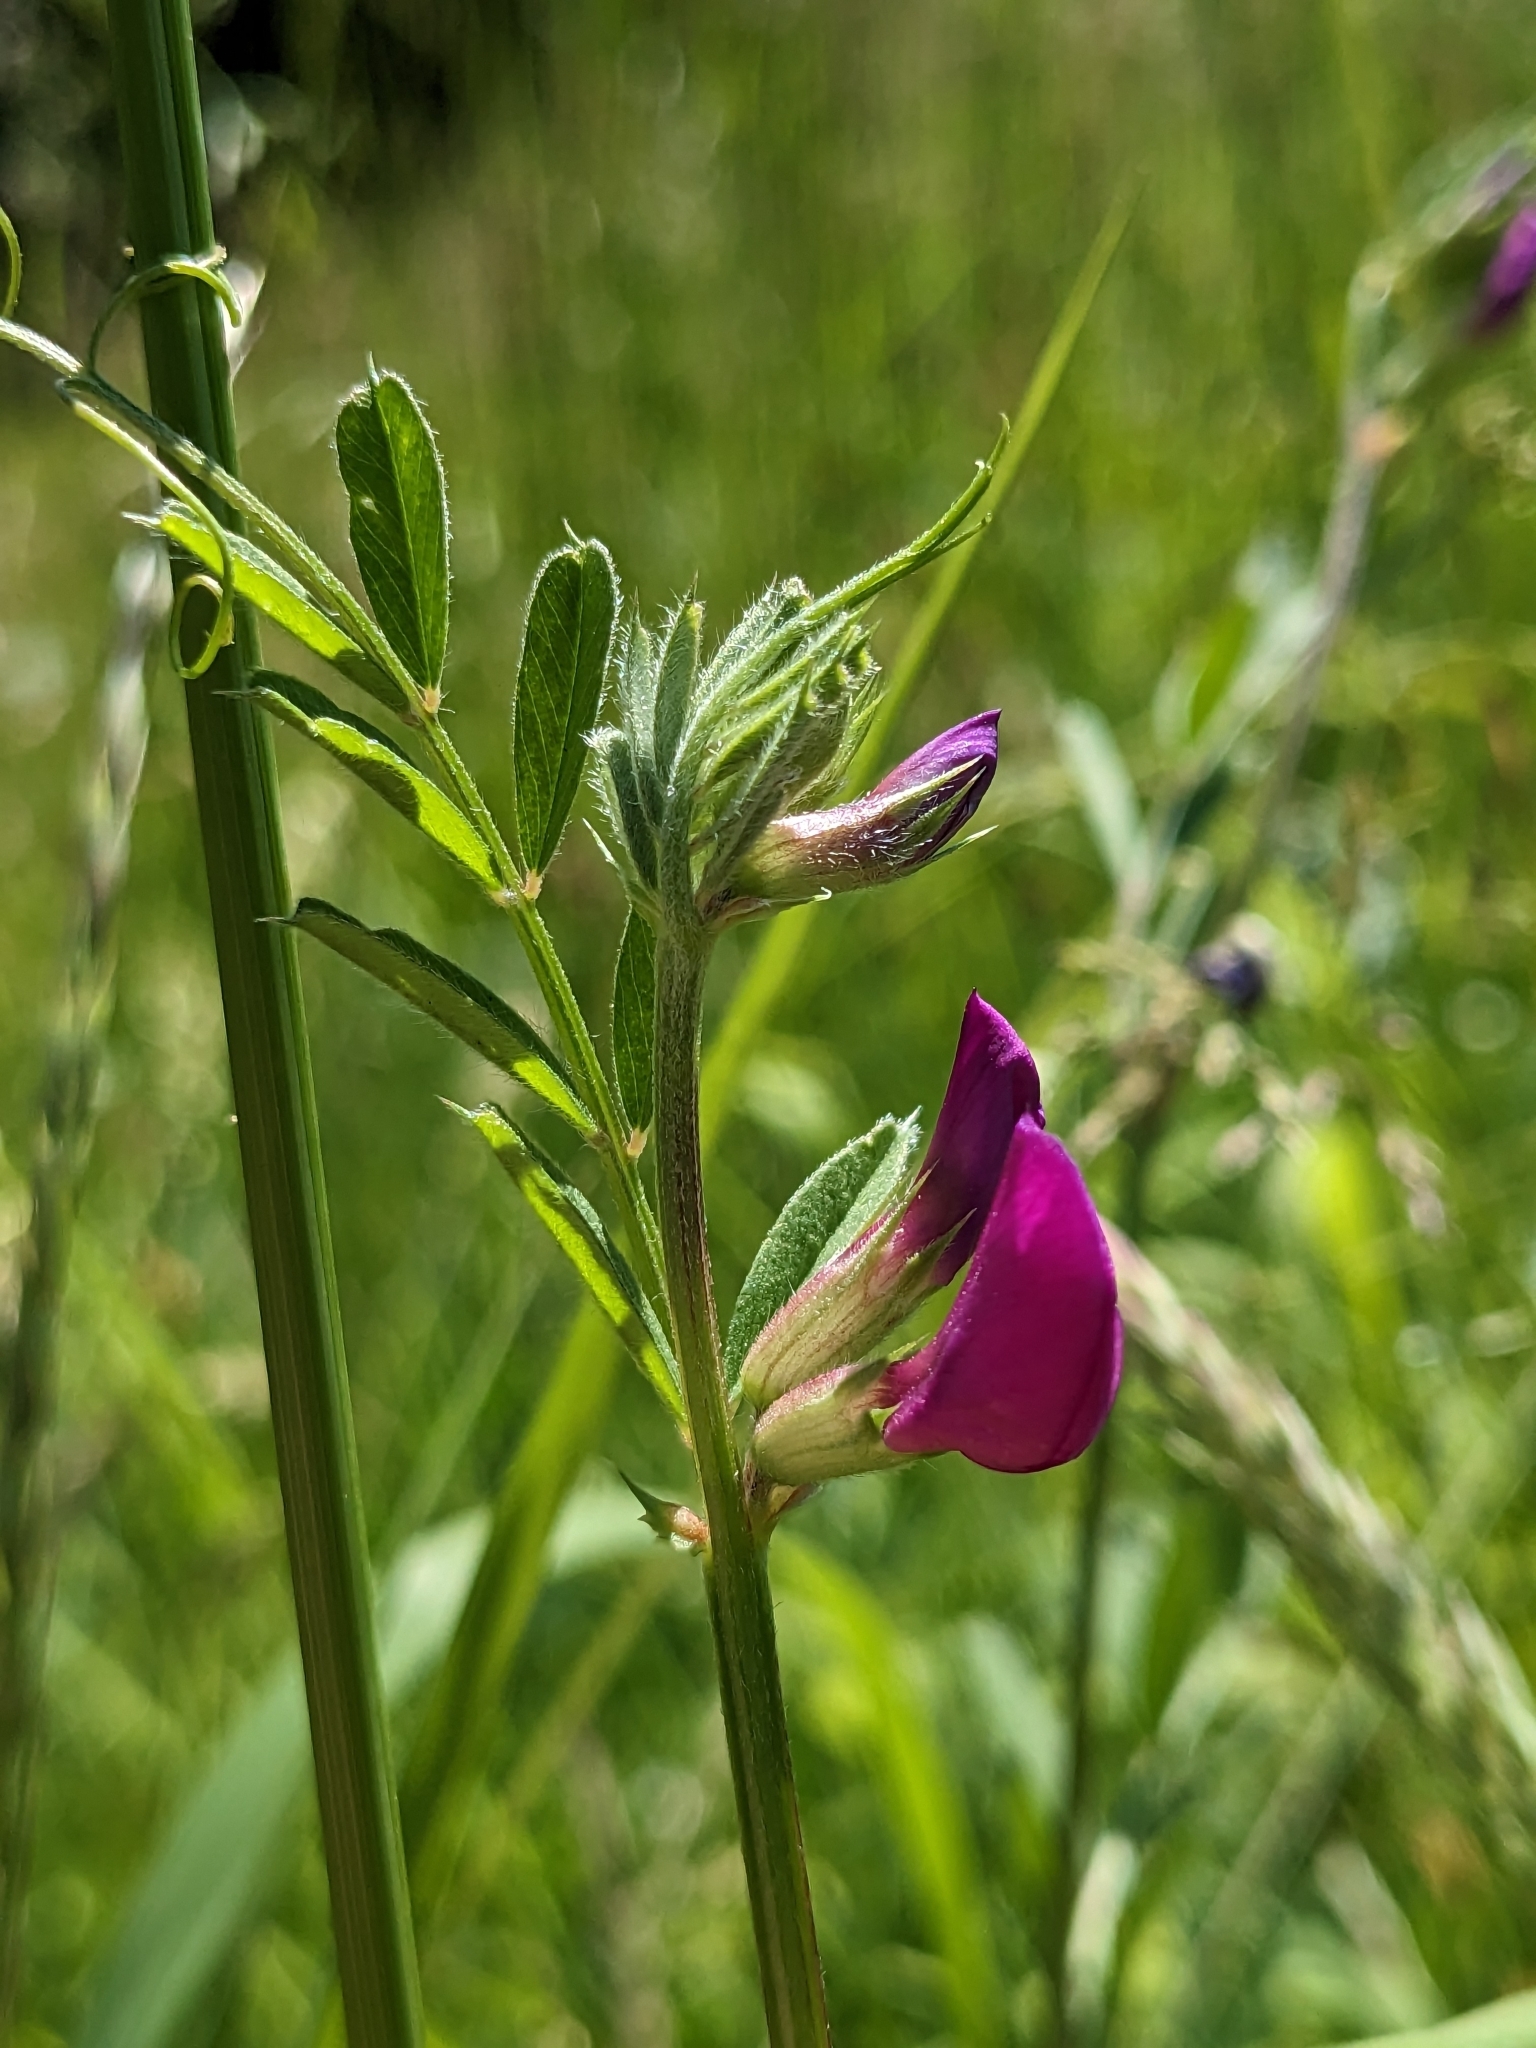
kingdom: Plantae
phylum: Tracheophyta
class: Magnoliopsida
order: Fabales
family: Fabaceae
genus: Vicia
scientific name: Vicia sativa
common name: Garden vetch
